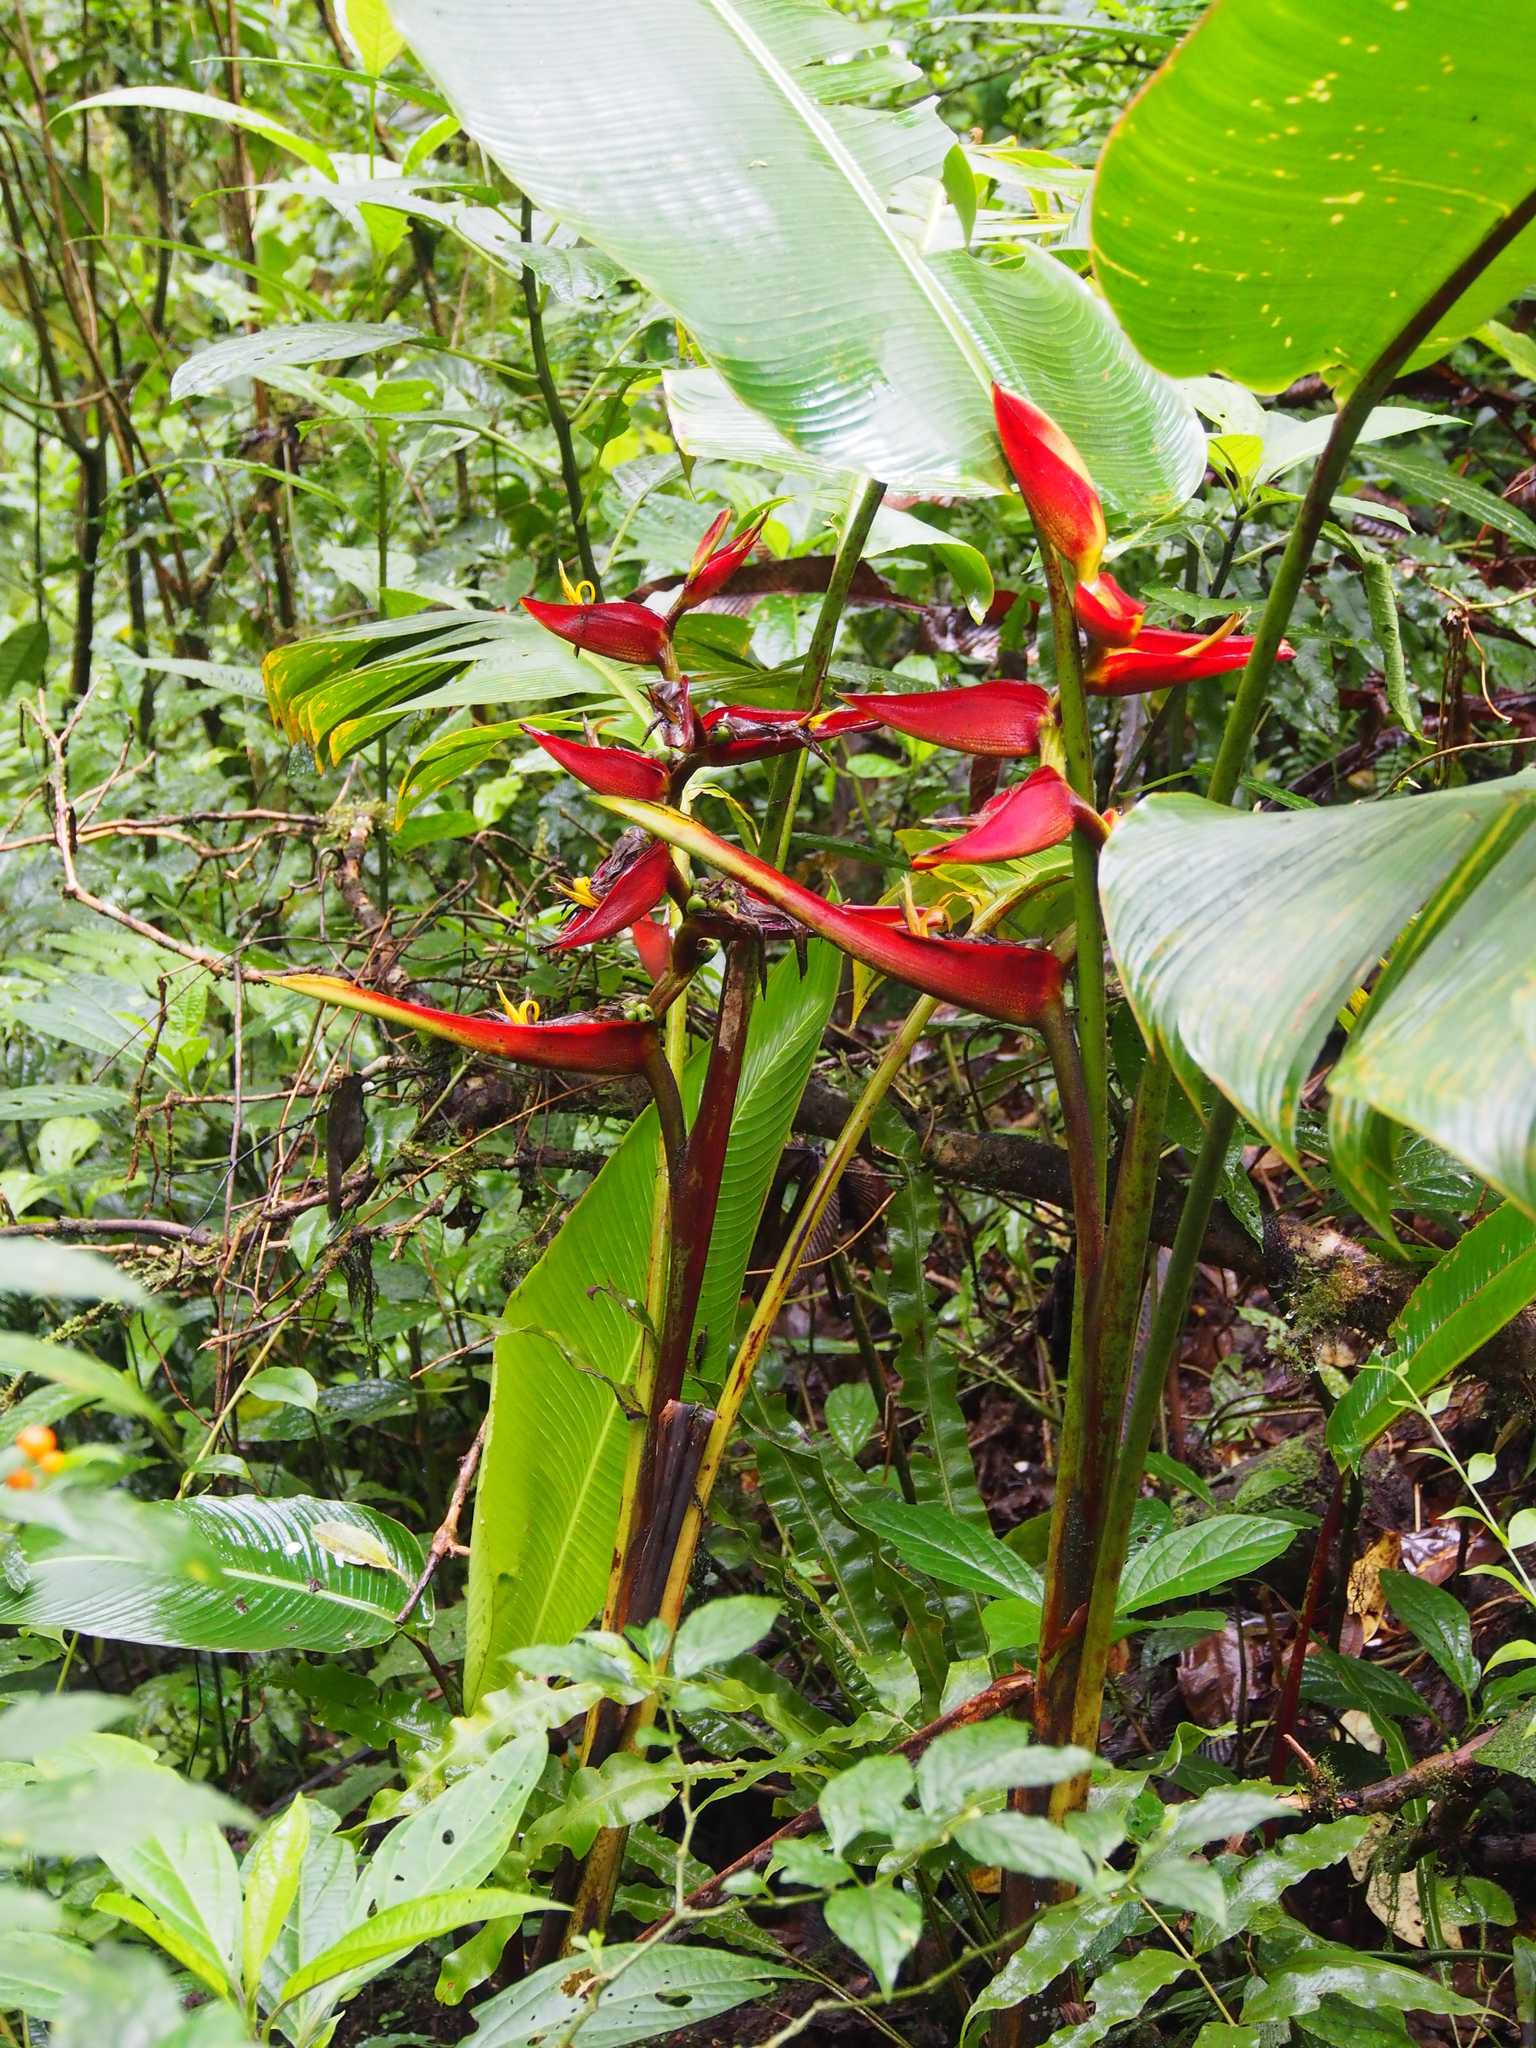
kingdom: Plantae
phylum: Tracheophyta
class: Liliopsida
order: Zingiberales
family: Heliconiaceae
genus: Heliconia
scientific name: Heliconia monteverdensis
